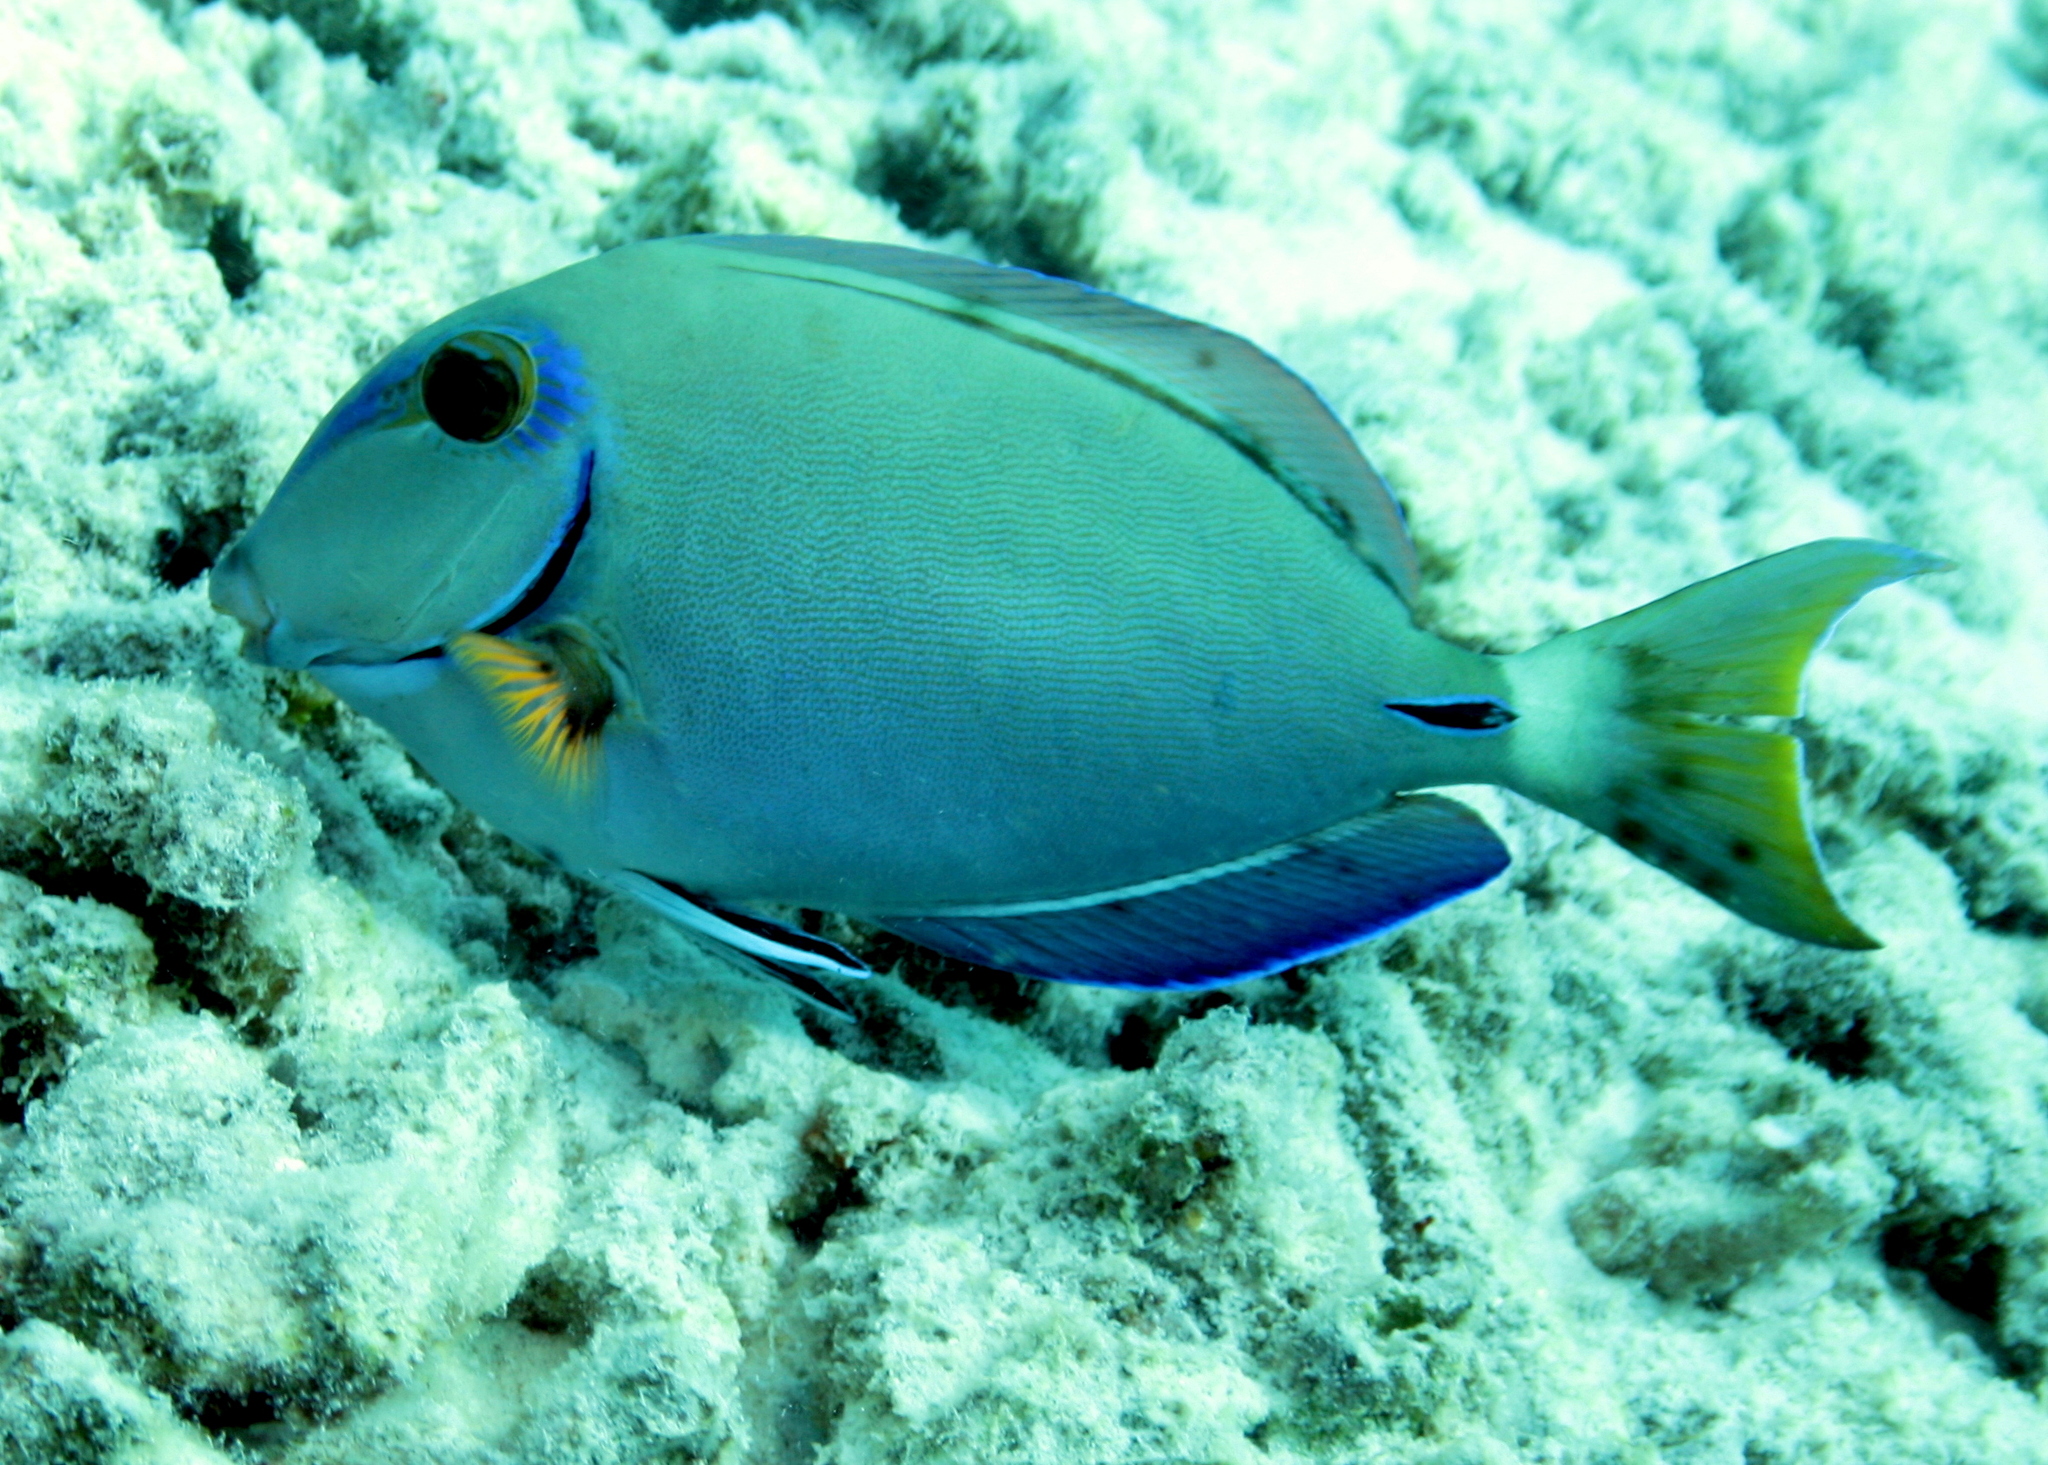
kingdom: Animalia
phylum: Chordata
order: Perciformes
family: Acanthuridae
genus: Acanthurus
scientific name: Acanthurus bahianus
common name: Ocean surgeon
